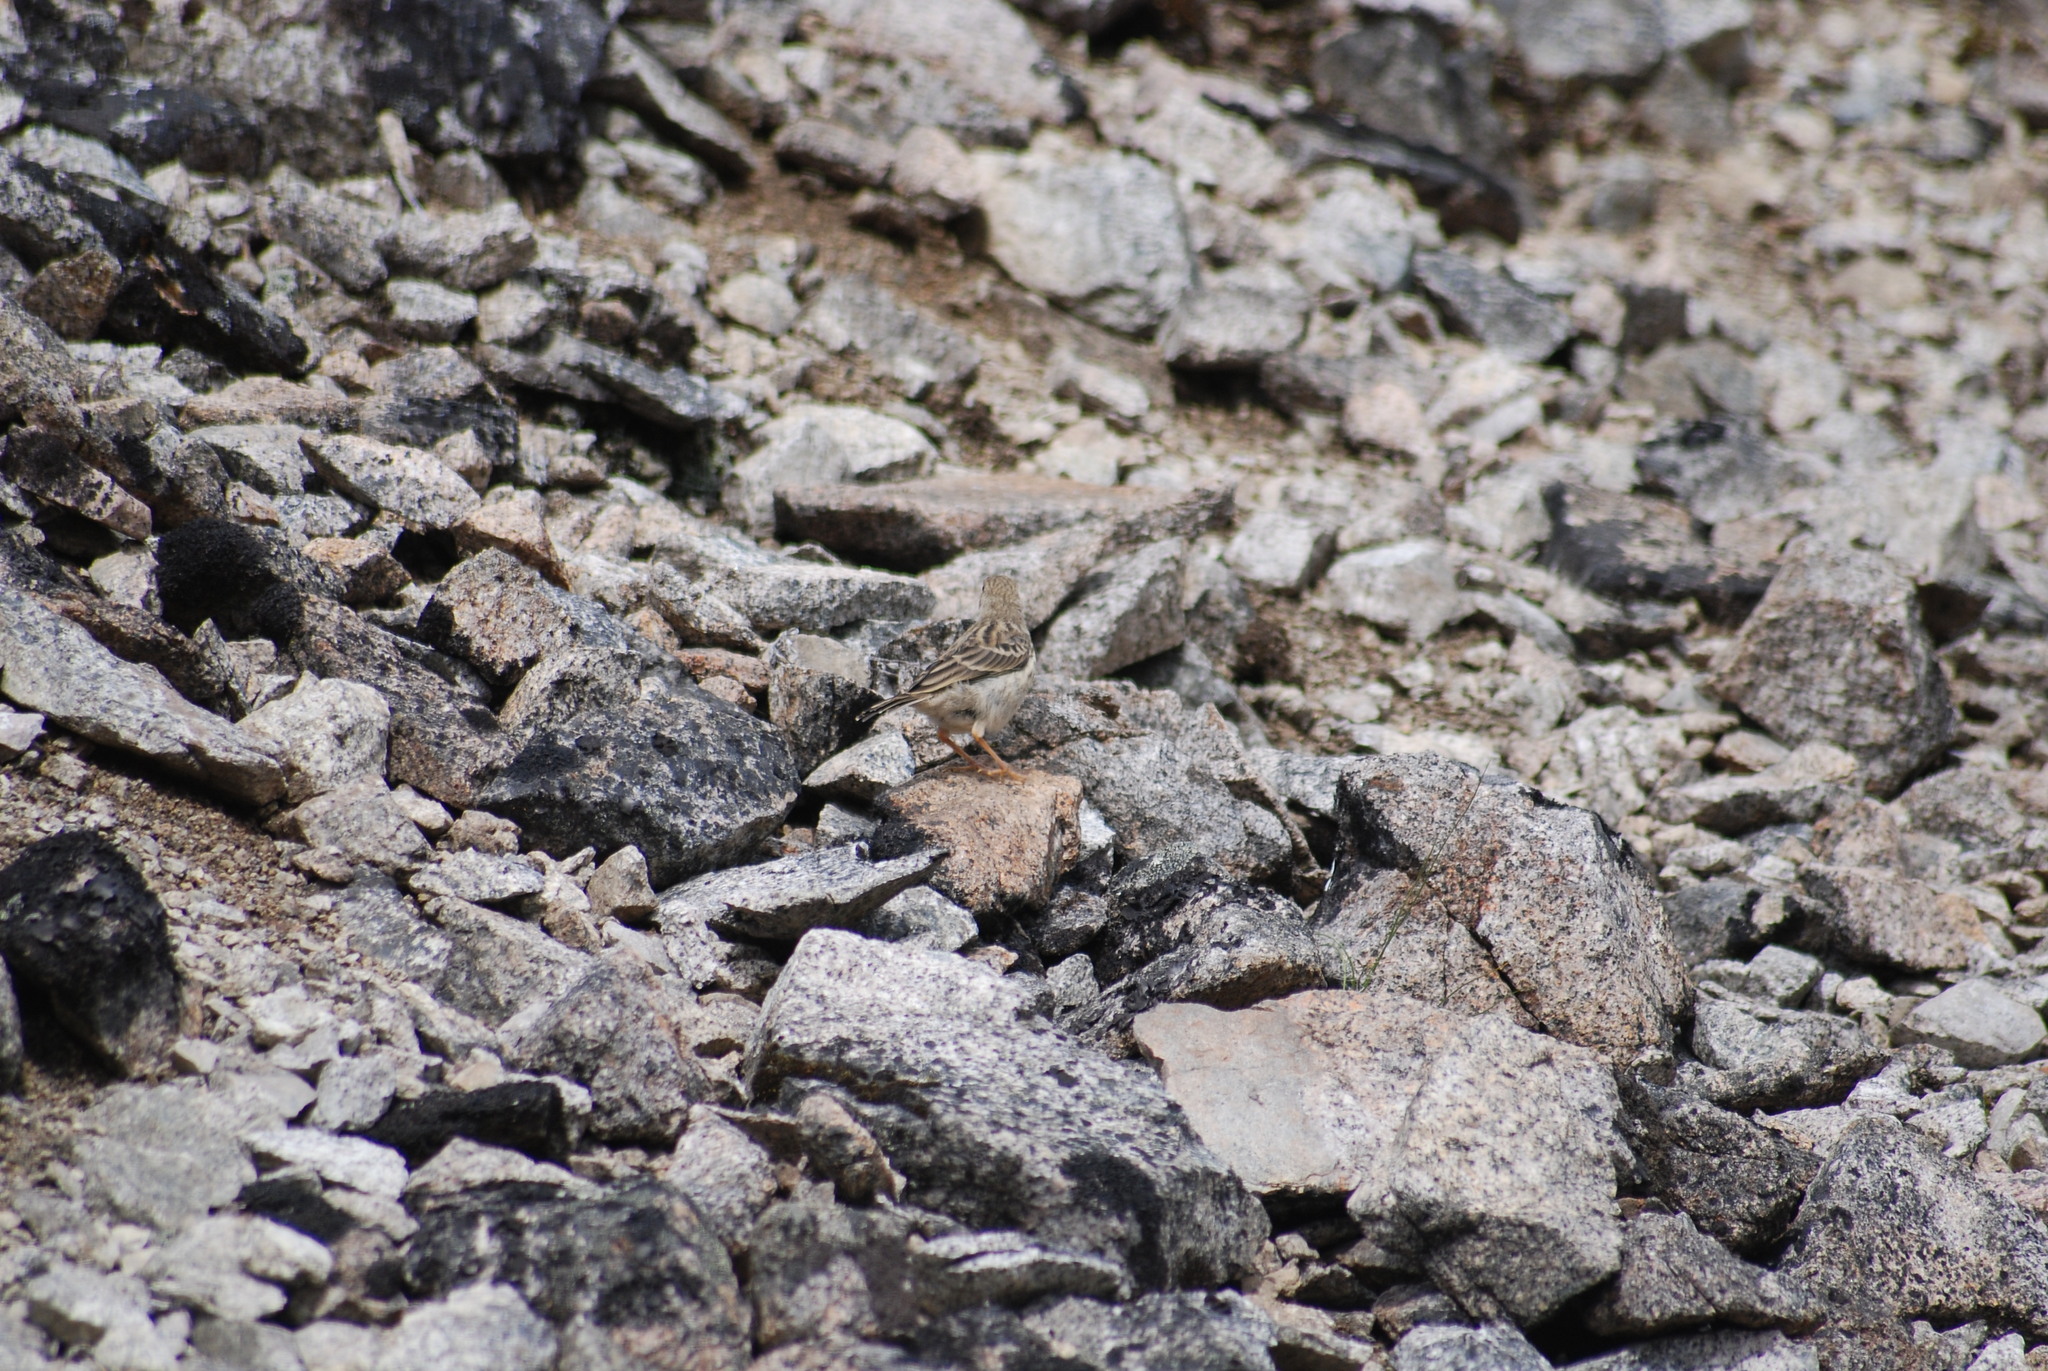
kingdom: Animalia
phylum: Chordata
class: Aves
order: Passeriformes
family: Motacillidae
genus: Anthus
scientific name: Anthus gustavi
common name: Pechora pipit
